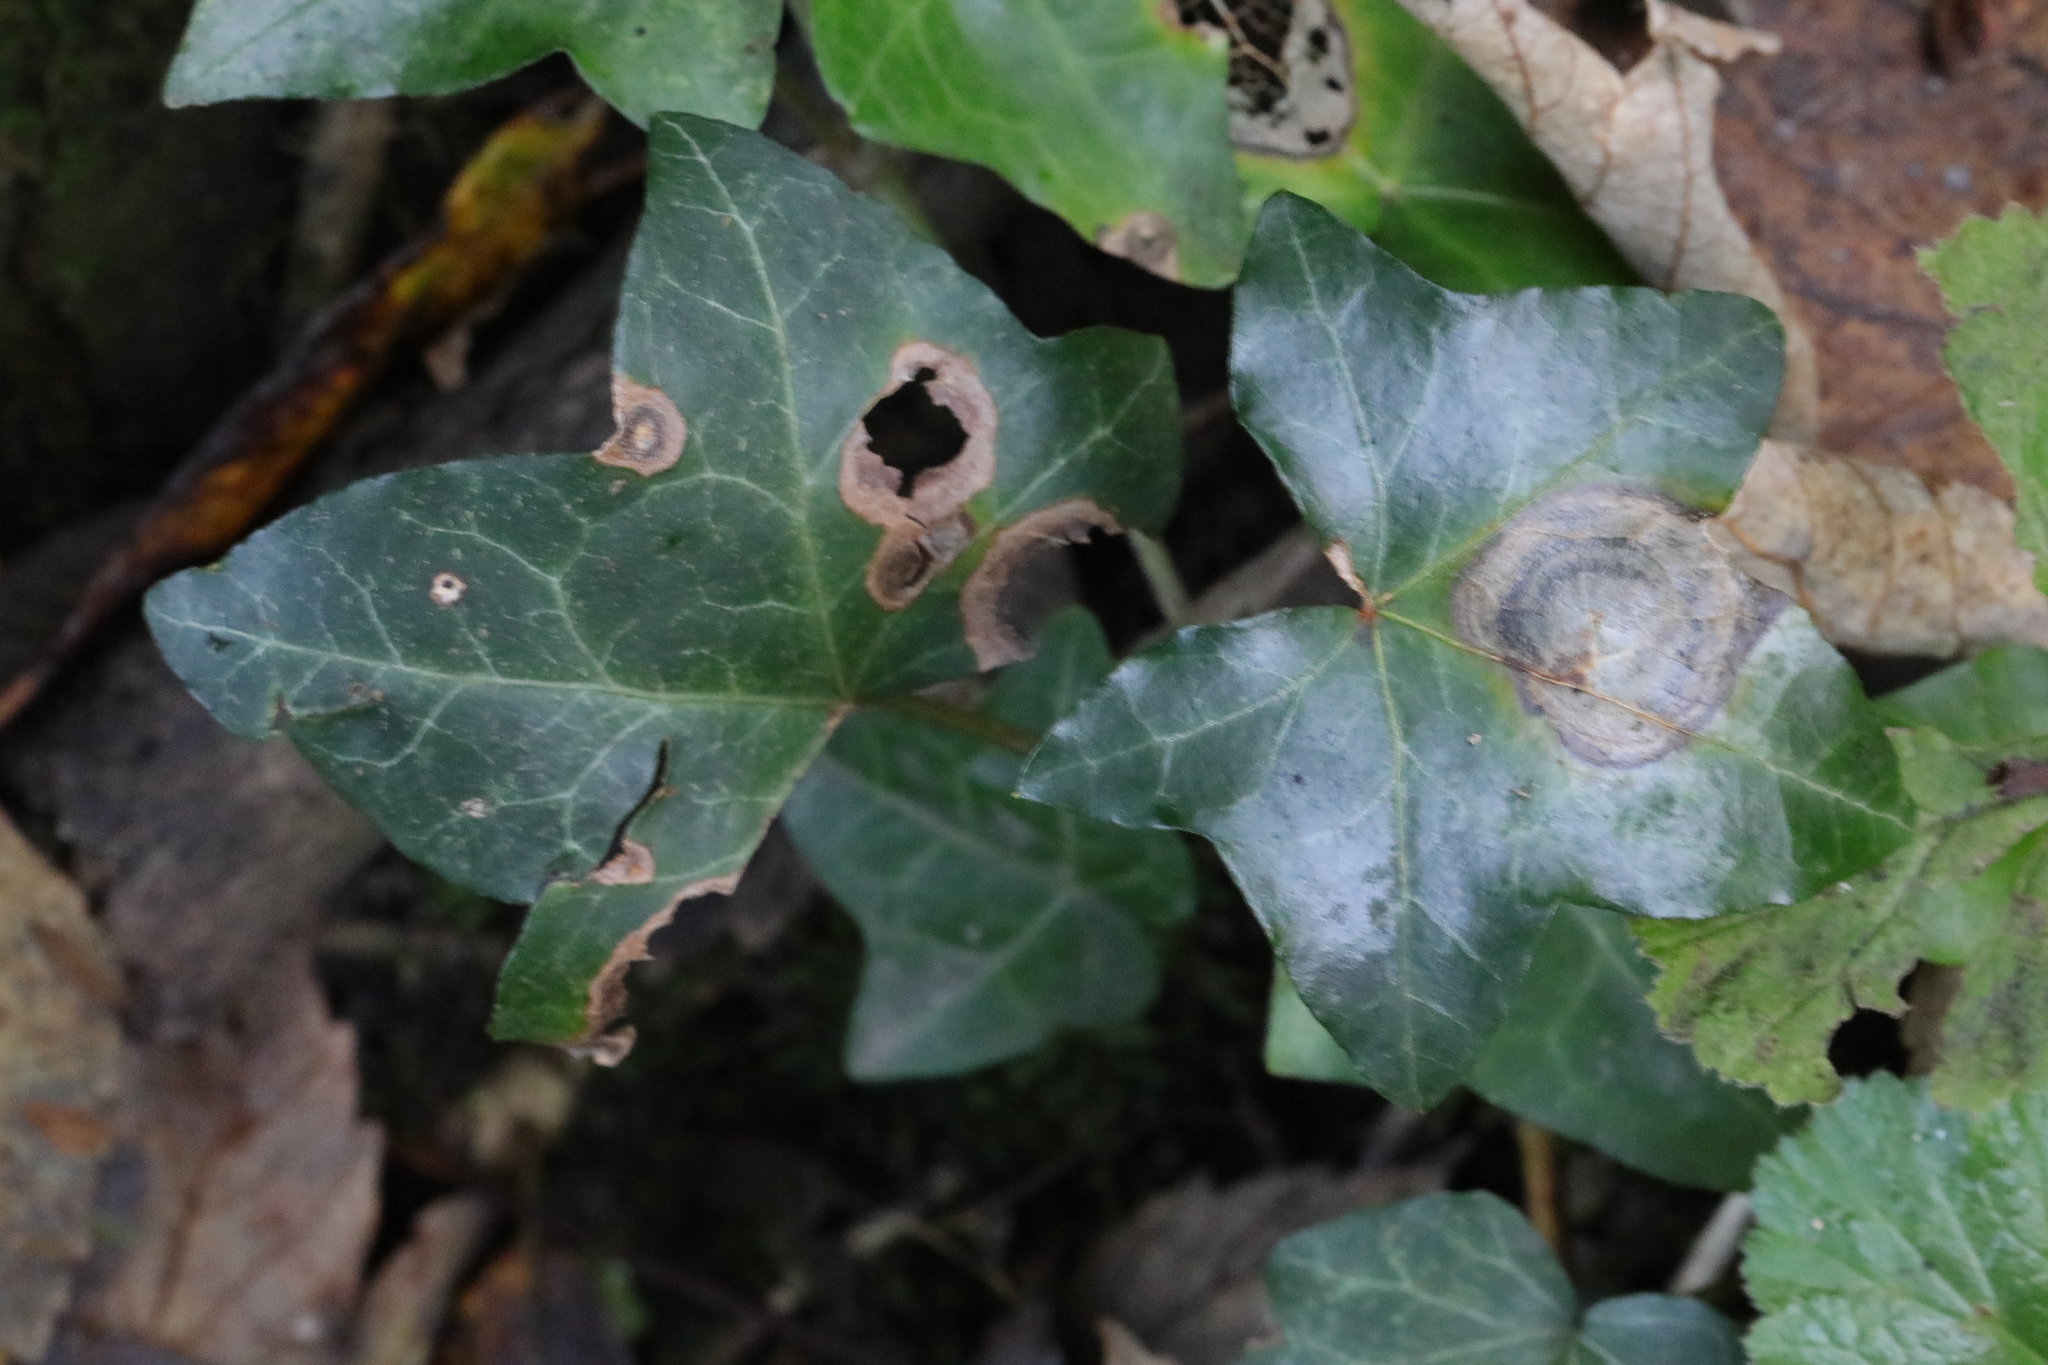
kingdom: Fungi
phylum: Ascomycota
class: Dothideomycetes
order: Pleosporales
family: Didymellaceae
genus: Boeremia
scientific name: Boeremia hedericola
